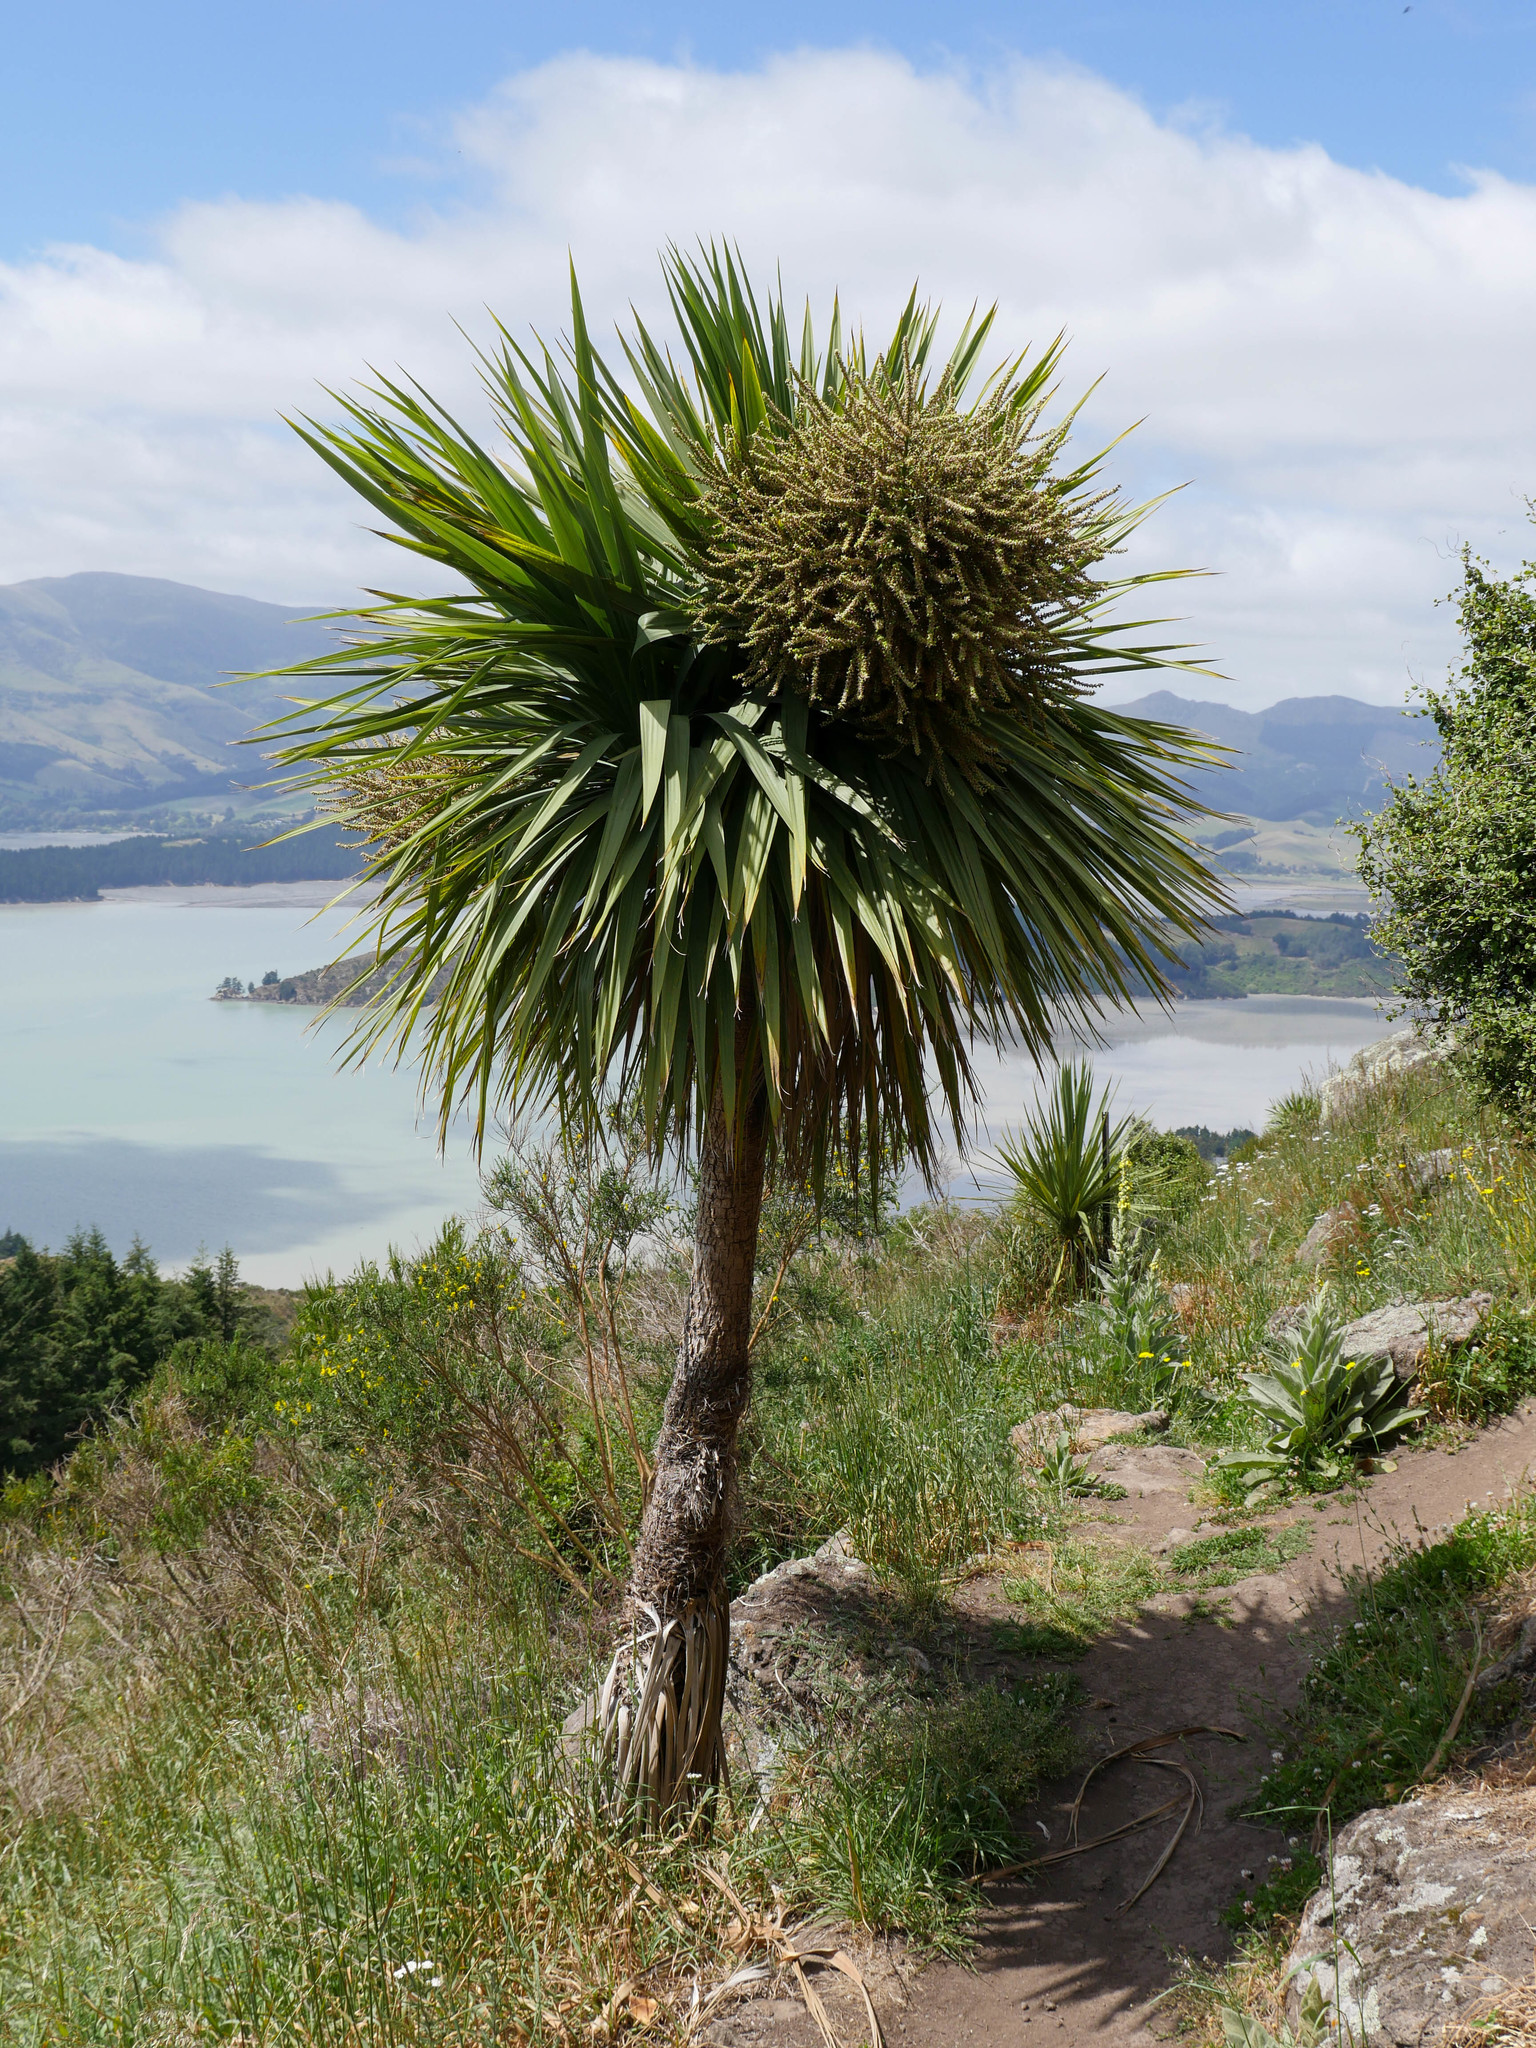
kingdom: Plantae
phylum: Tracheophyta
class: Liliopsida
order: Asparagales
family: Asparagaceae
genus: Cordyline
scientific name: Cordyline australis
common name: Cabbage-palm
